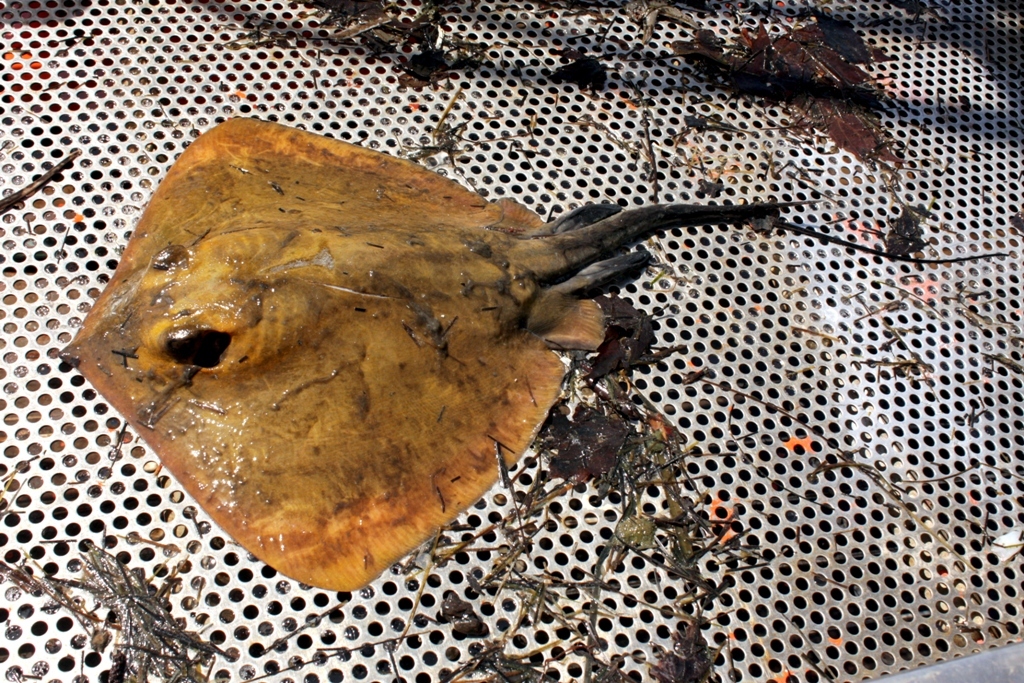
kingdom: Animalia
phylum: Chordata
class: Elasmobranchii
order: Myliobatiformes
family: Dasyatidae
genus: Dasyatis
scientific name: Dasyatis
